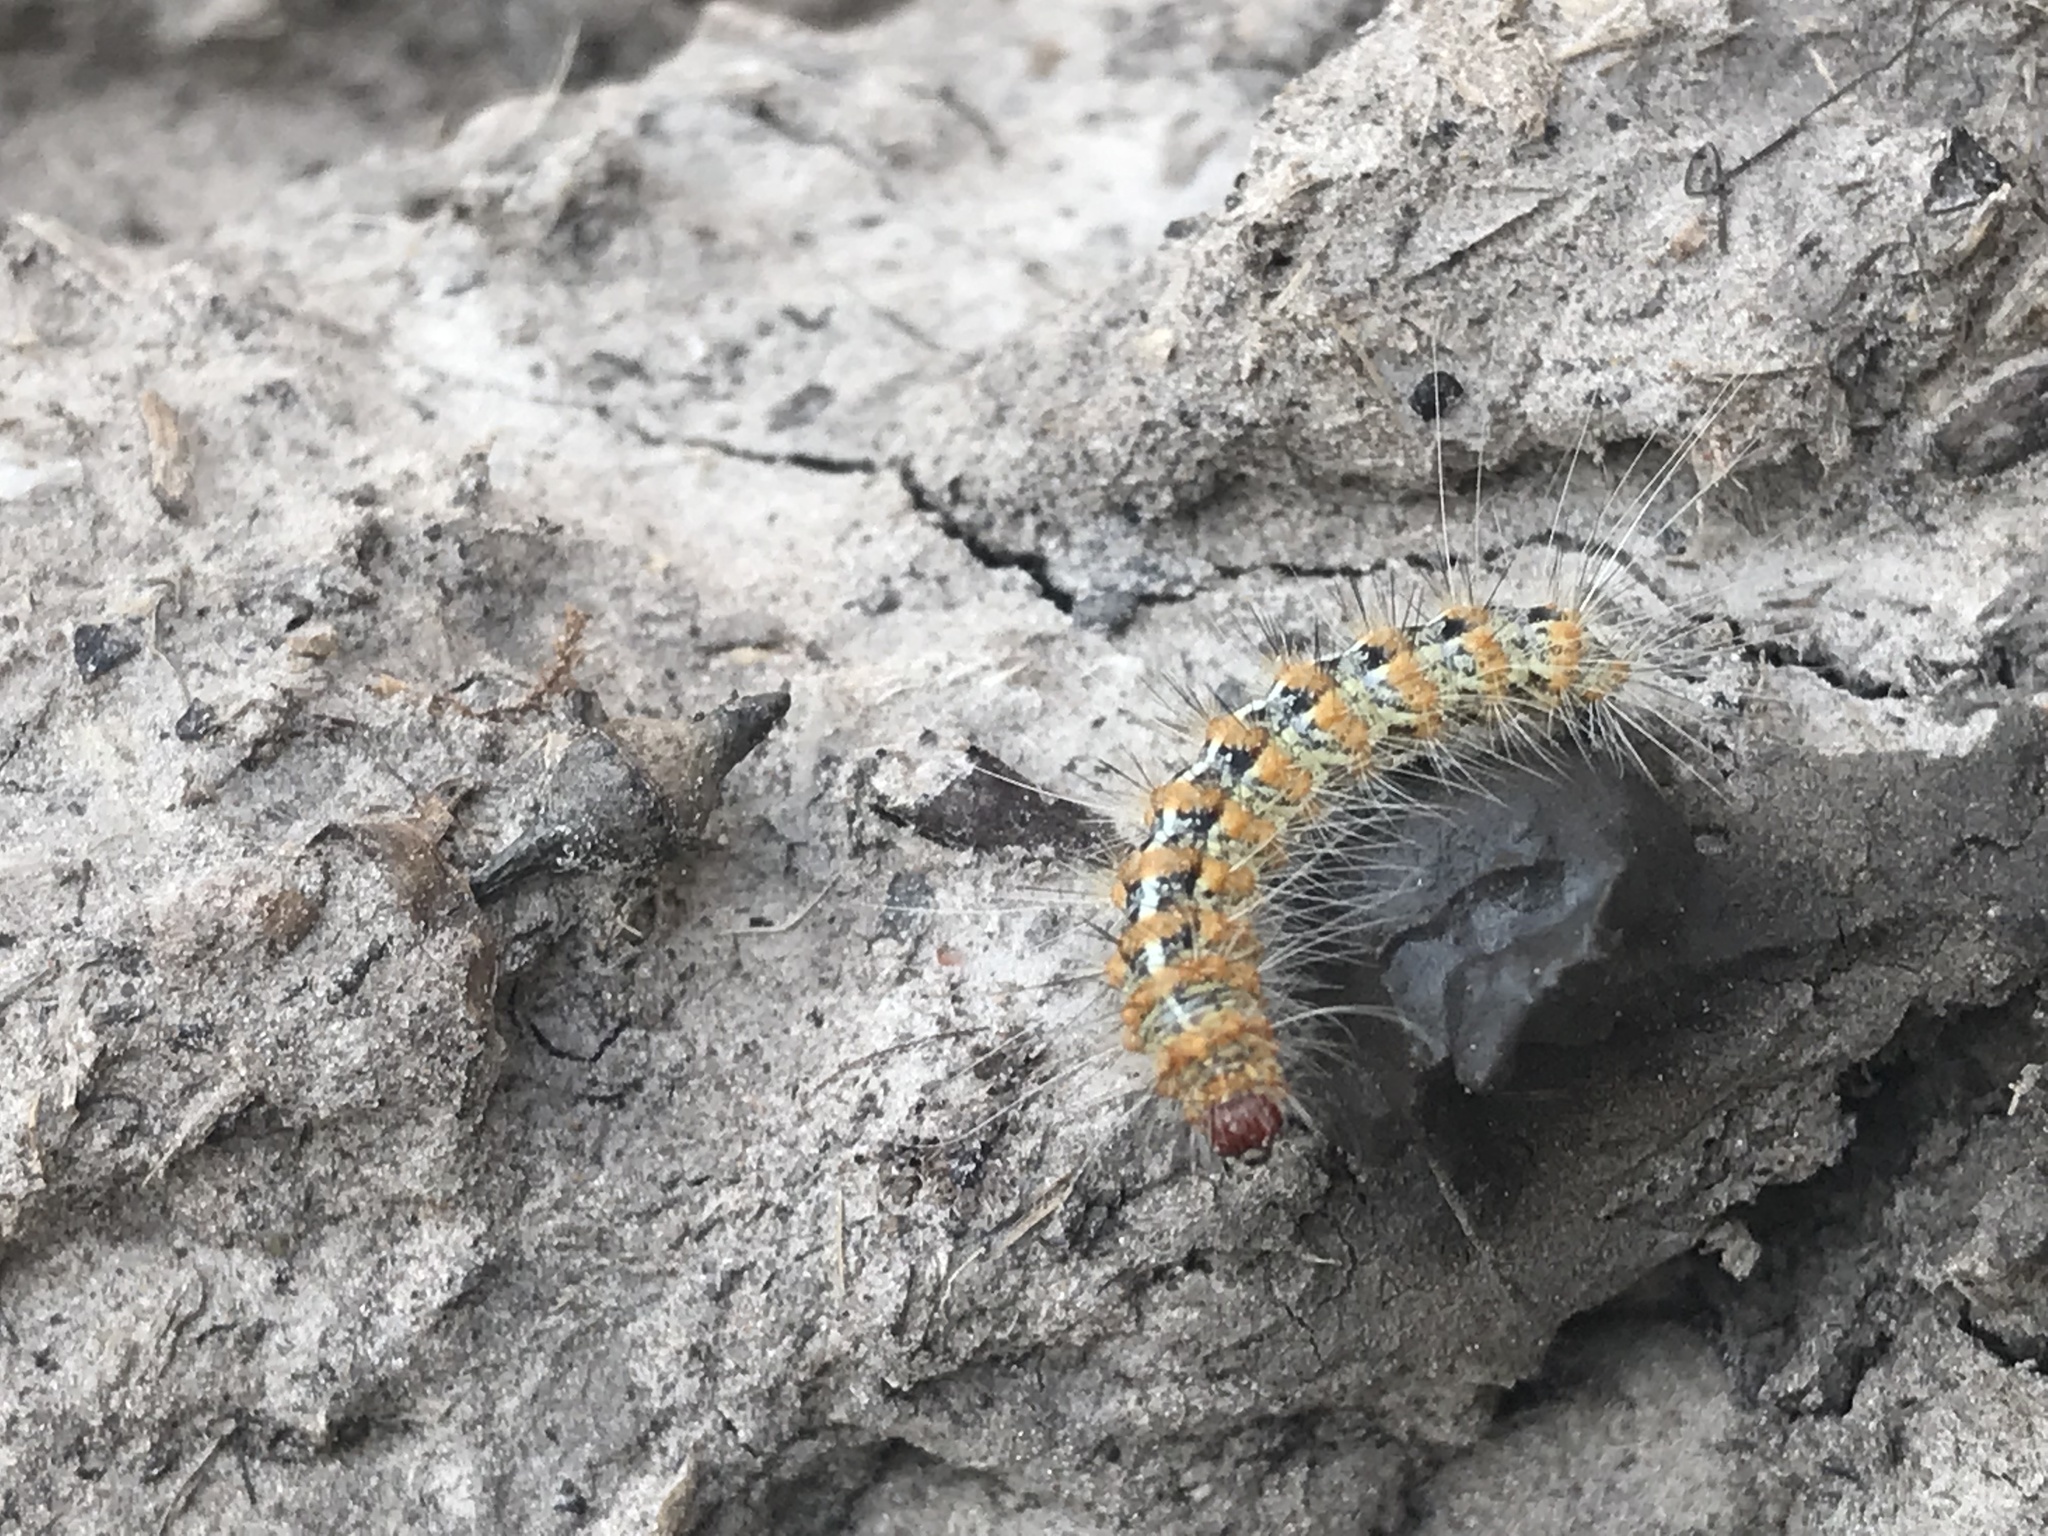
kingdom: Animalia
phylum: Arthropoda
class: Insecta
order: Lepidoptera
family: Erebidae
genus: Paracles
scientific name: Paracles deserticola
